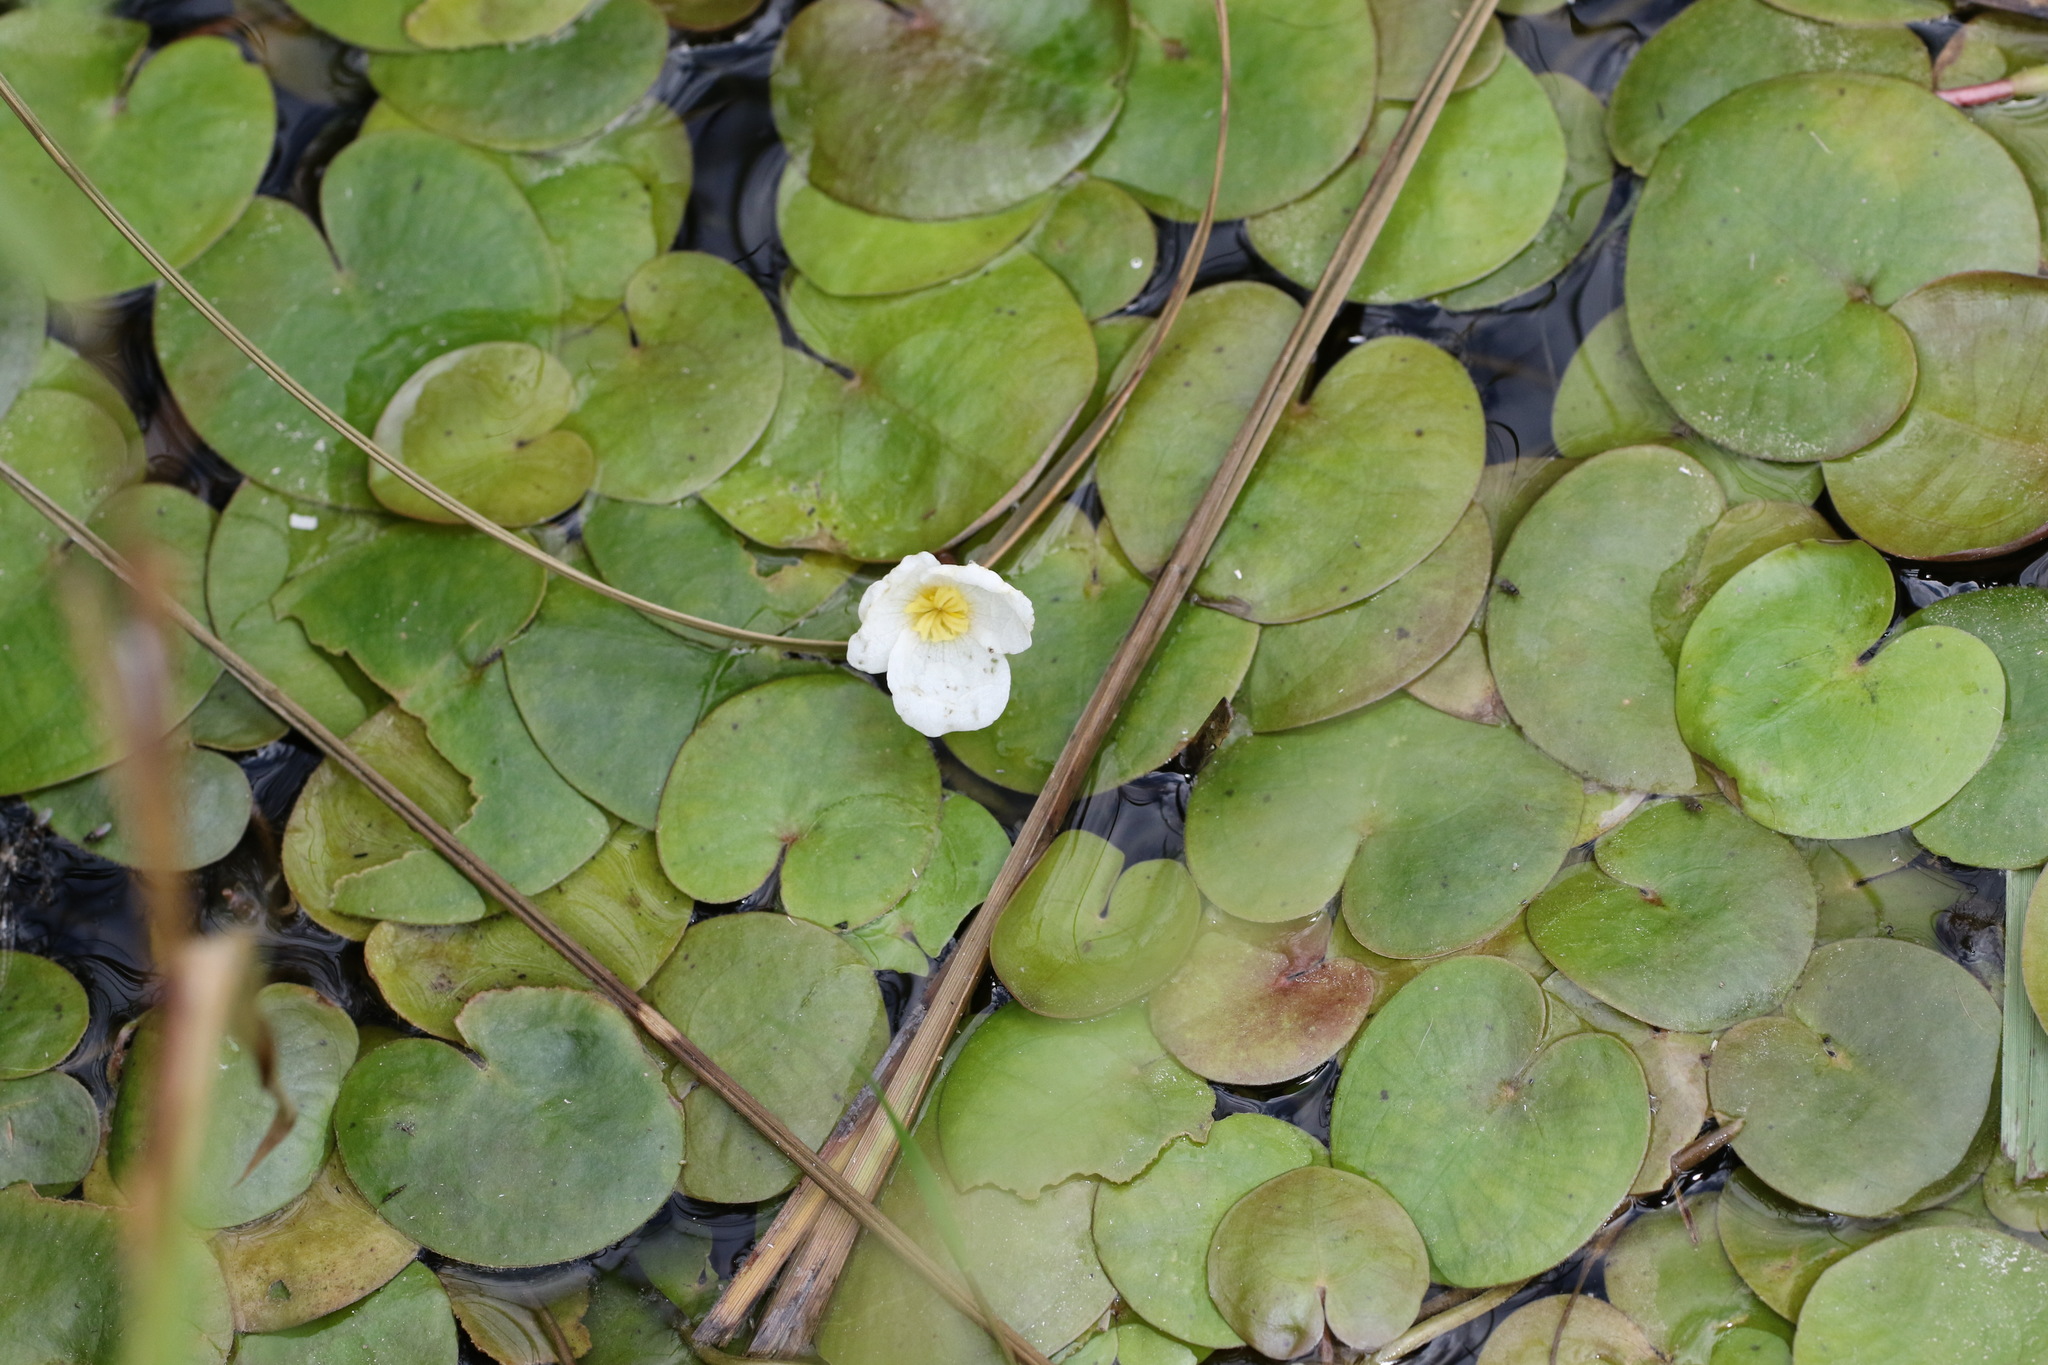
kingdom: Plantae
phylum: Tracheophyta
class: Liliopsida
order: Alismatales
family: Hydrocharitaceae
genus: Hydrocharis
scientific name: Hydrocharis morsus-ranae
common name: Frogbit
